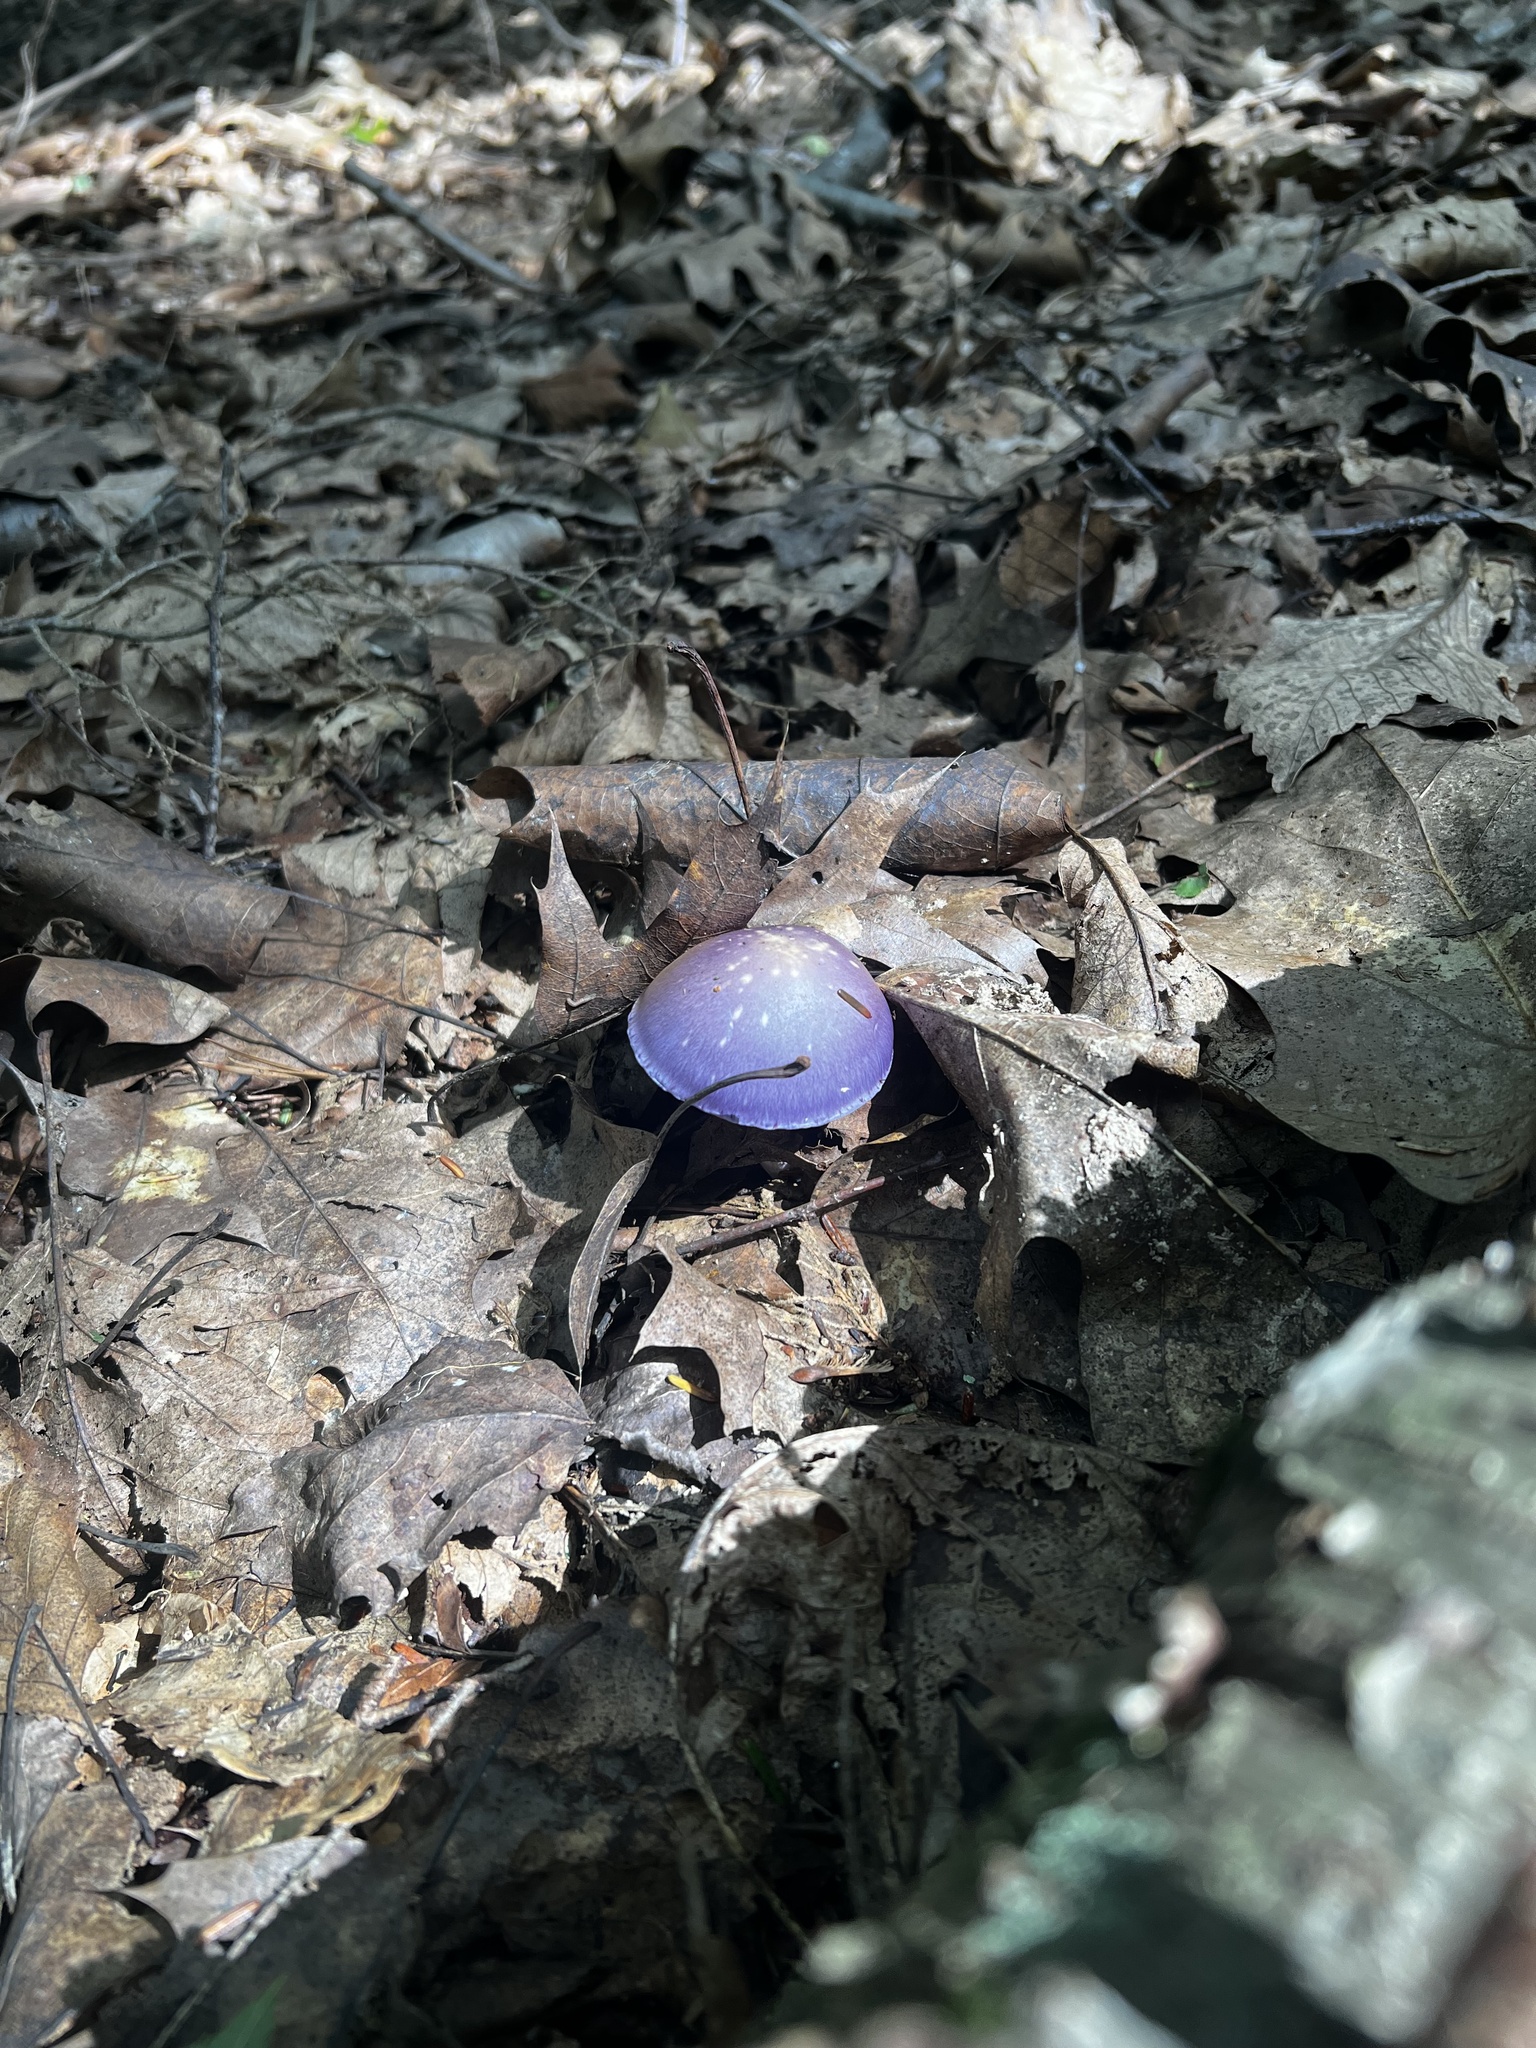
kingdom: Fungi
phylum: Basidiomycota
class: Agaricomycetes
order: Agaricales
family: Cortinariaceae
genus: Cortinarius
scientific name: Cortinarius iodes
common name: Viscid violet cort
